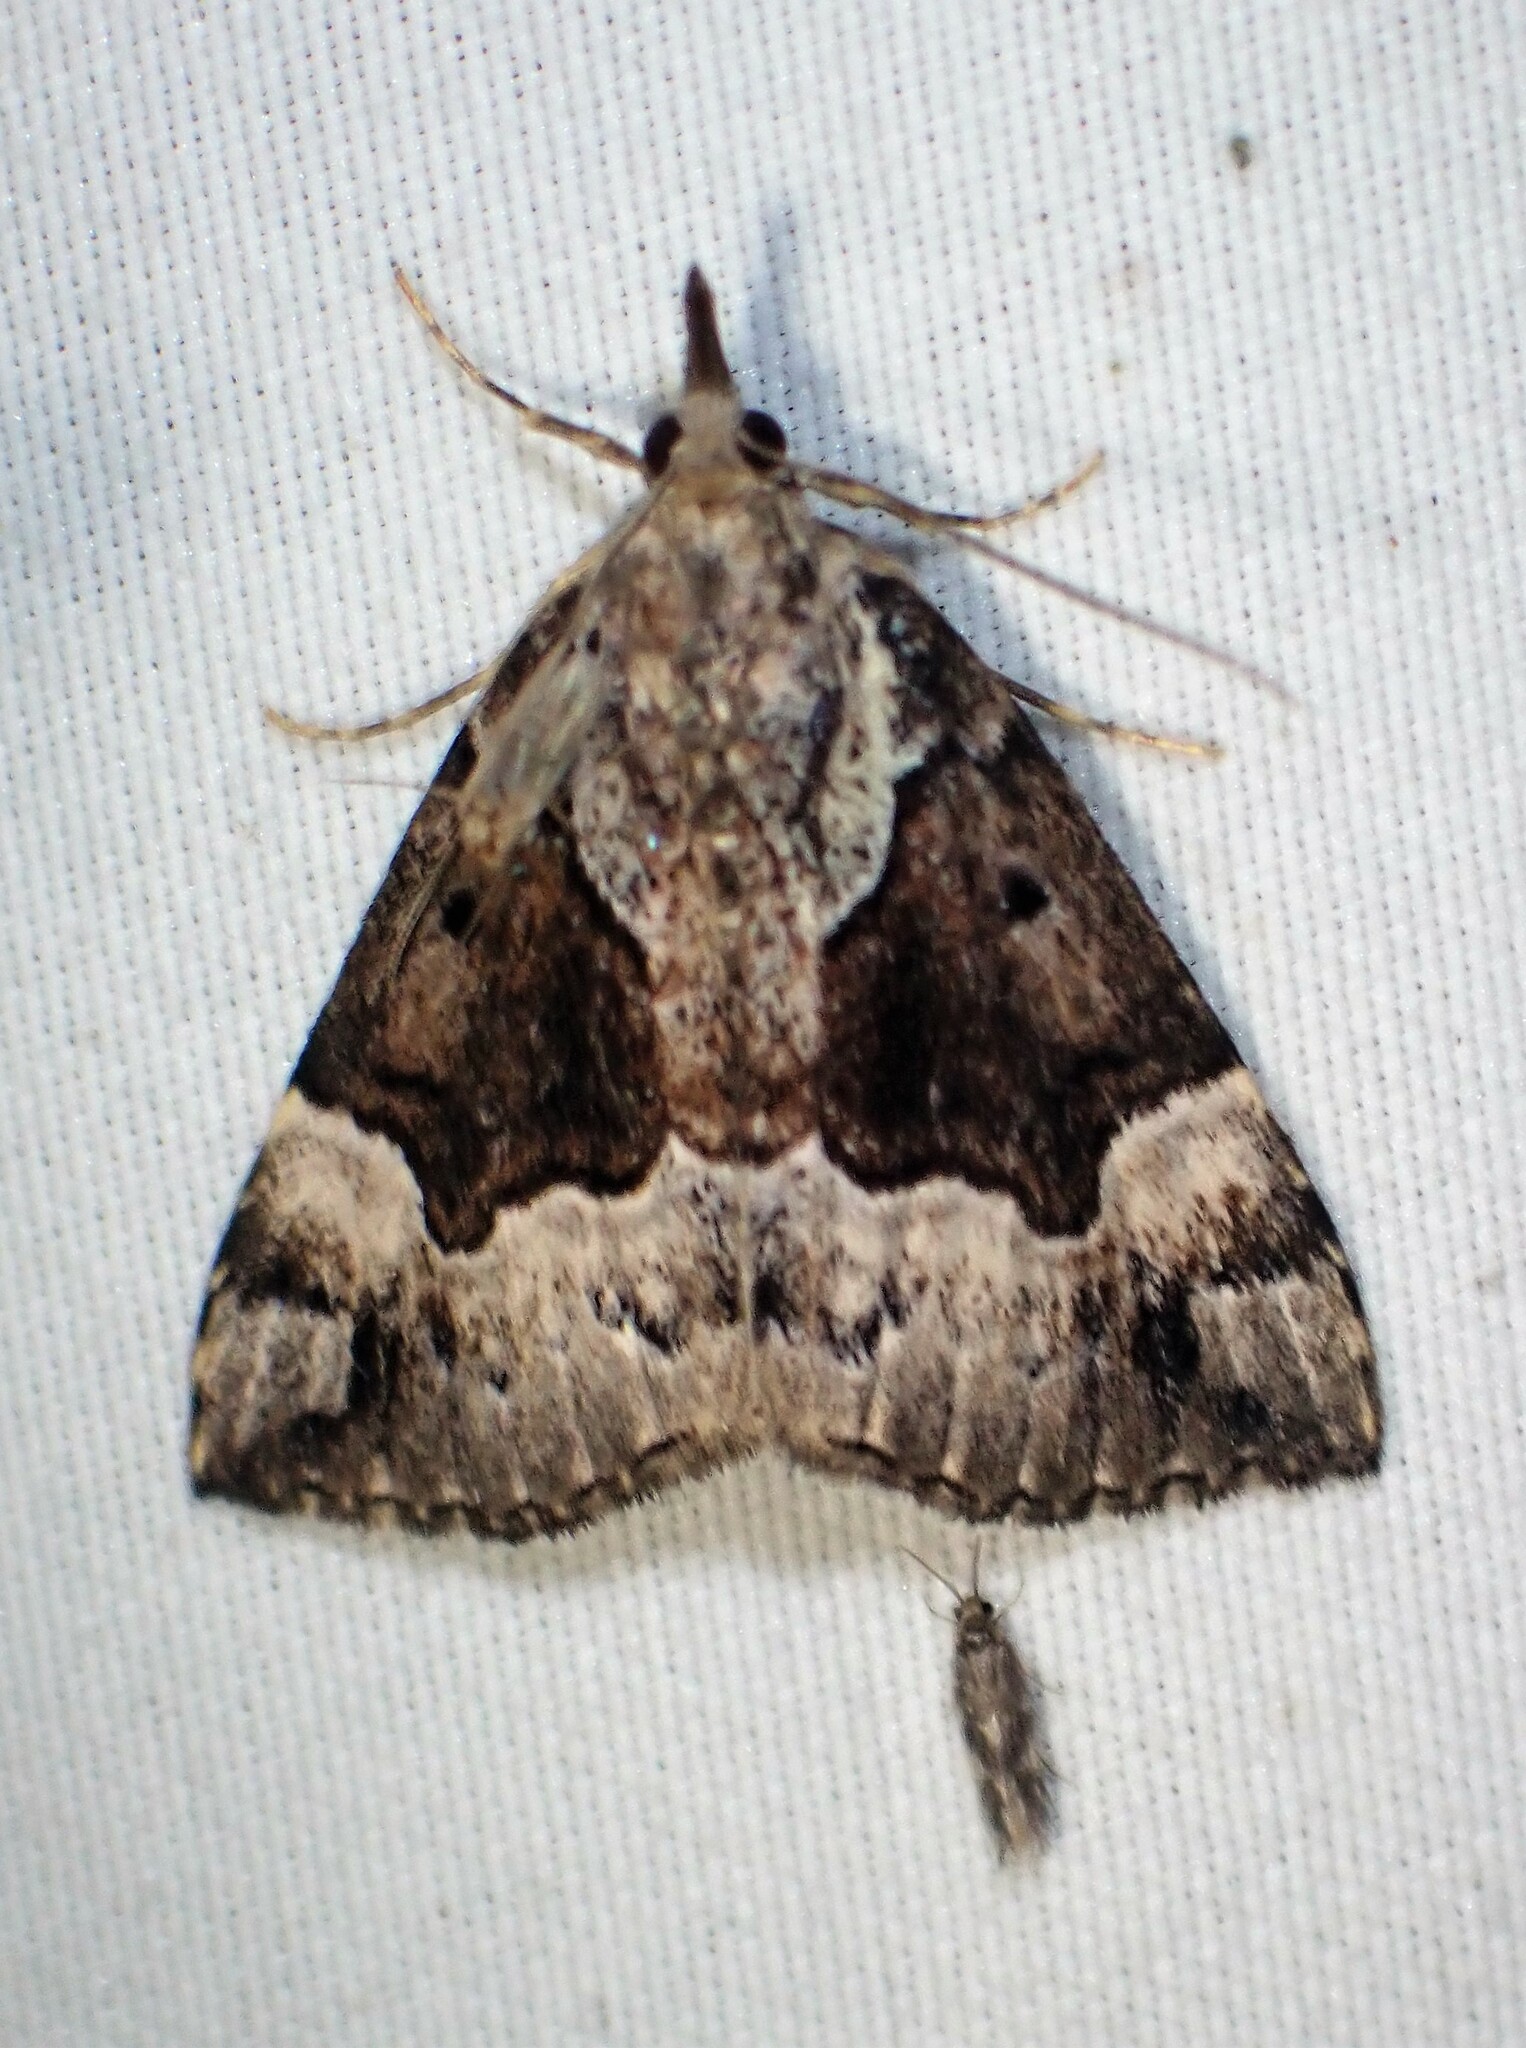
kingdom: Animalia
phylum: Arthropoda
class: Insecta
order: Lepidoptera
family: Erebidae
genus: Hypena
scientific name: Hypena palparia
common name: Mottled bomolocha moth
